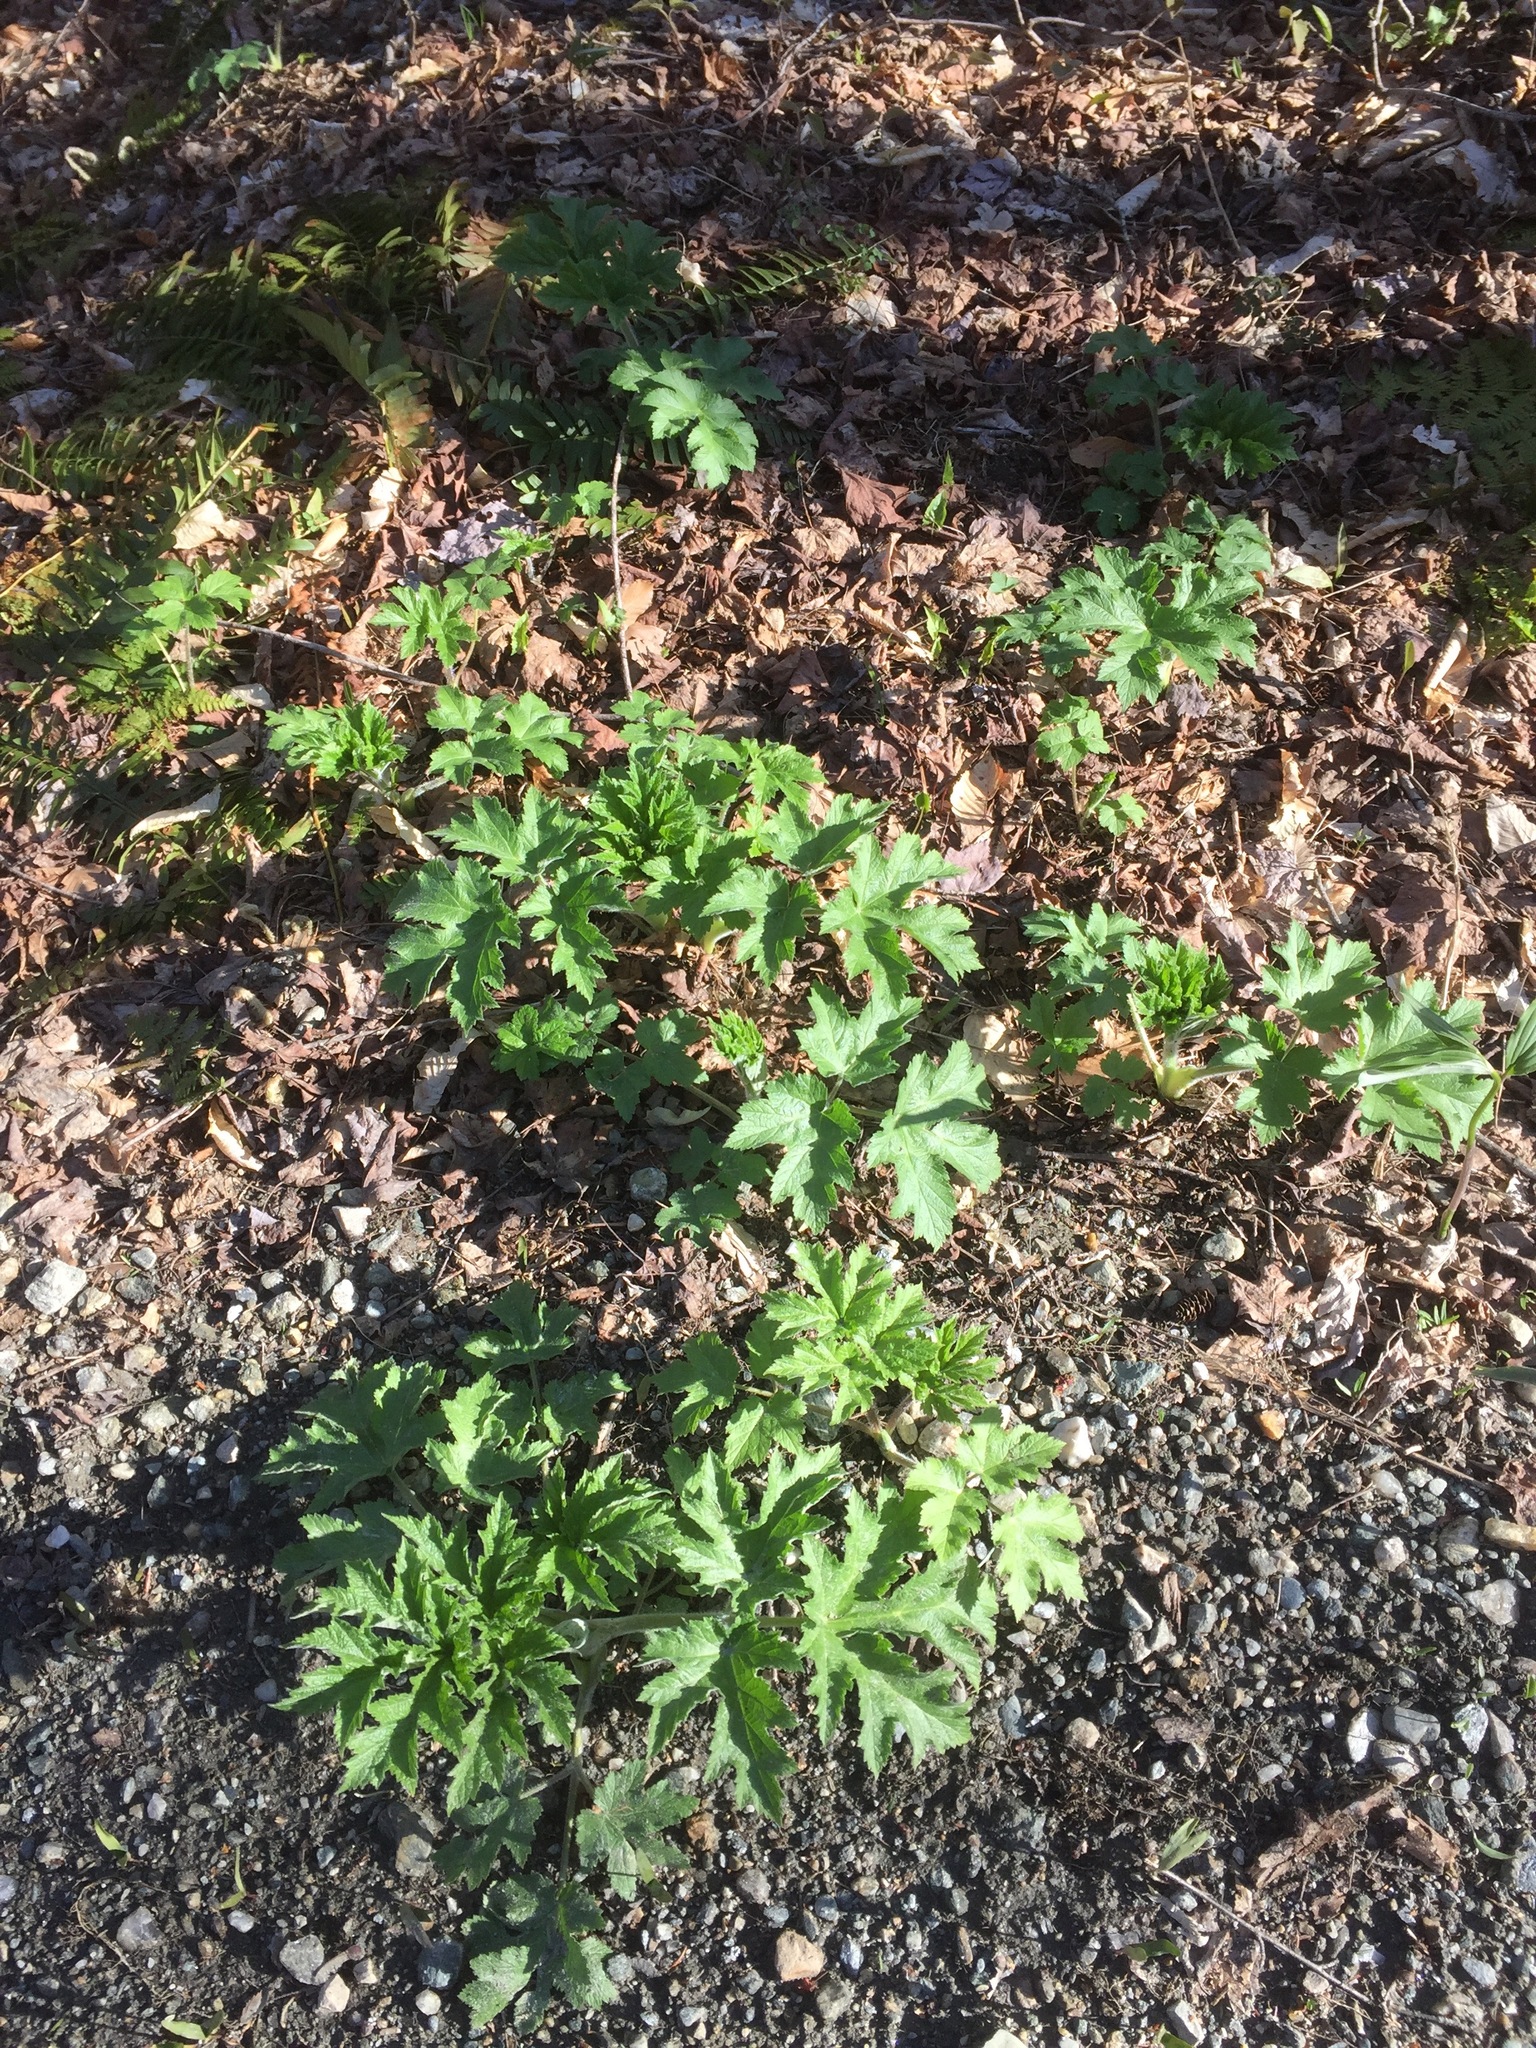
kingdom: Plantae
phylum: Tracheophyta
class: Magnoliopsida
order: Apiales
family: Apiaceae
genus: Heracleum
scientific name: Heracleum maximum
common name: American cow parsnip
